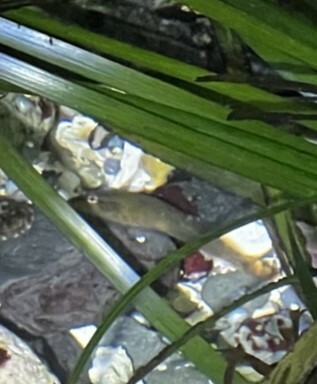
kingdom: Animalia
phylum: Chordata
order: Gobiesociformes
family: Gobiesocidae
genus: Gobiesox
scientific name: Gobiesox maeandricus
